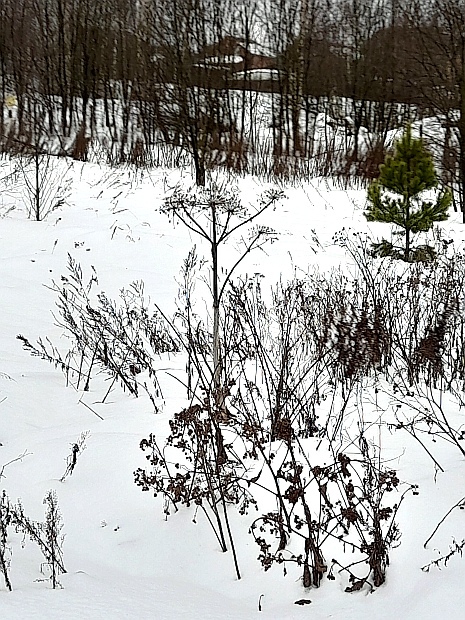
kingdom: Plantae
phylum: Tracheophyta
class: Magnoliopsida
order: Apiales
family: Apiaceae
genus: Heracleum
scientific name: Heracleum sosnowskyi
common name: Sosnowsky's hogweed
